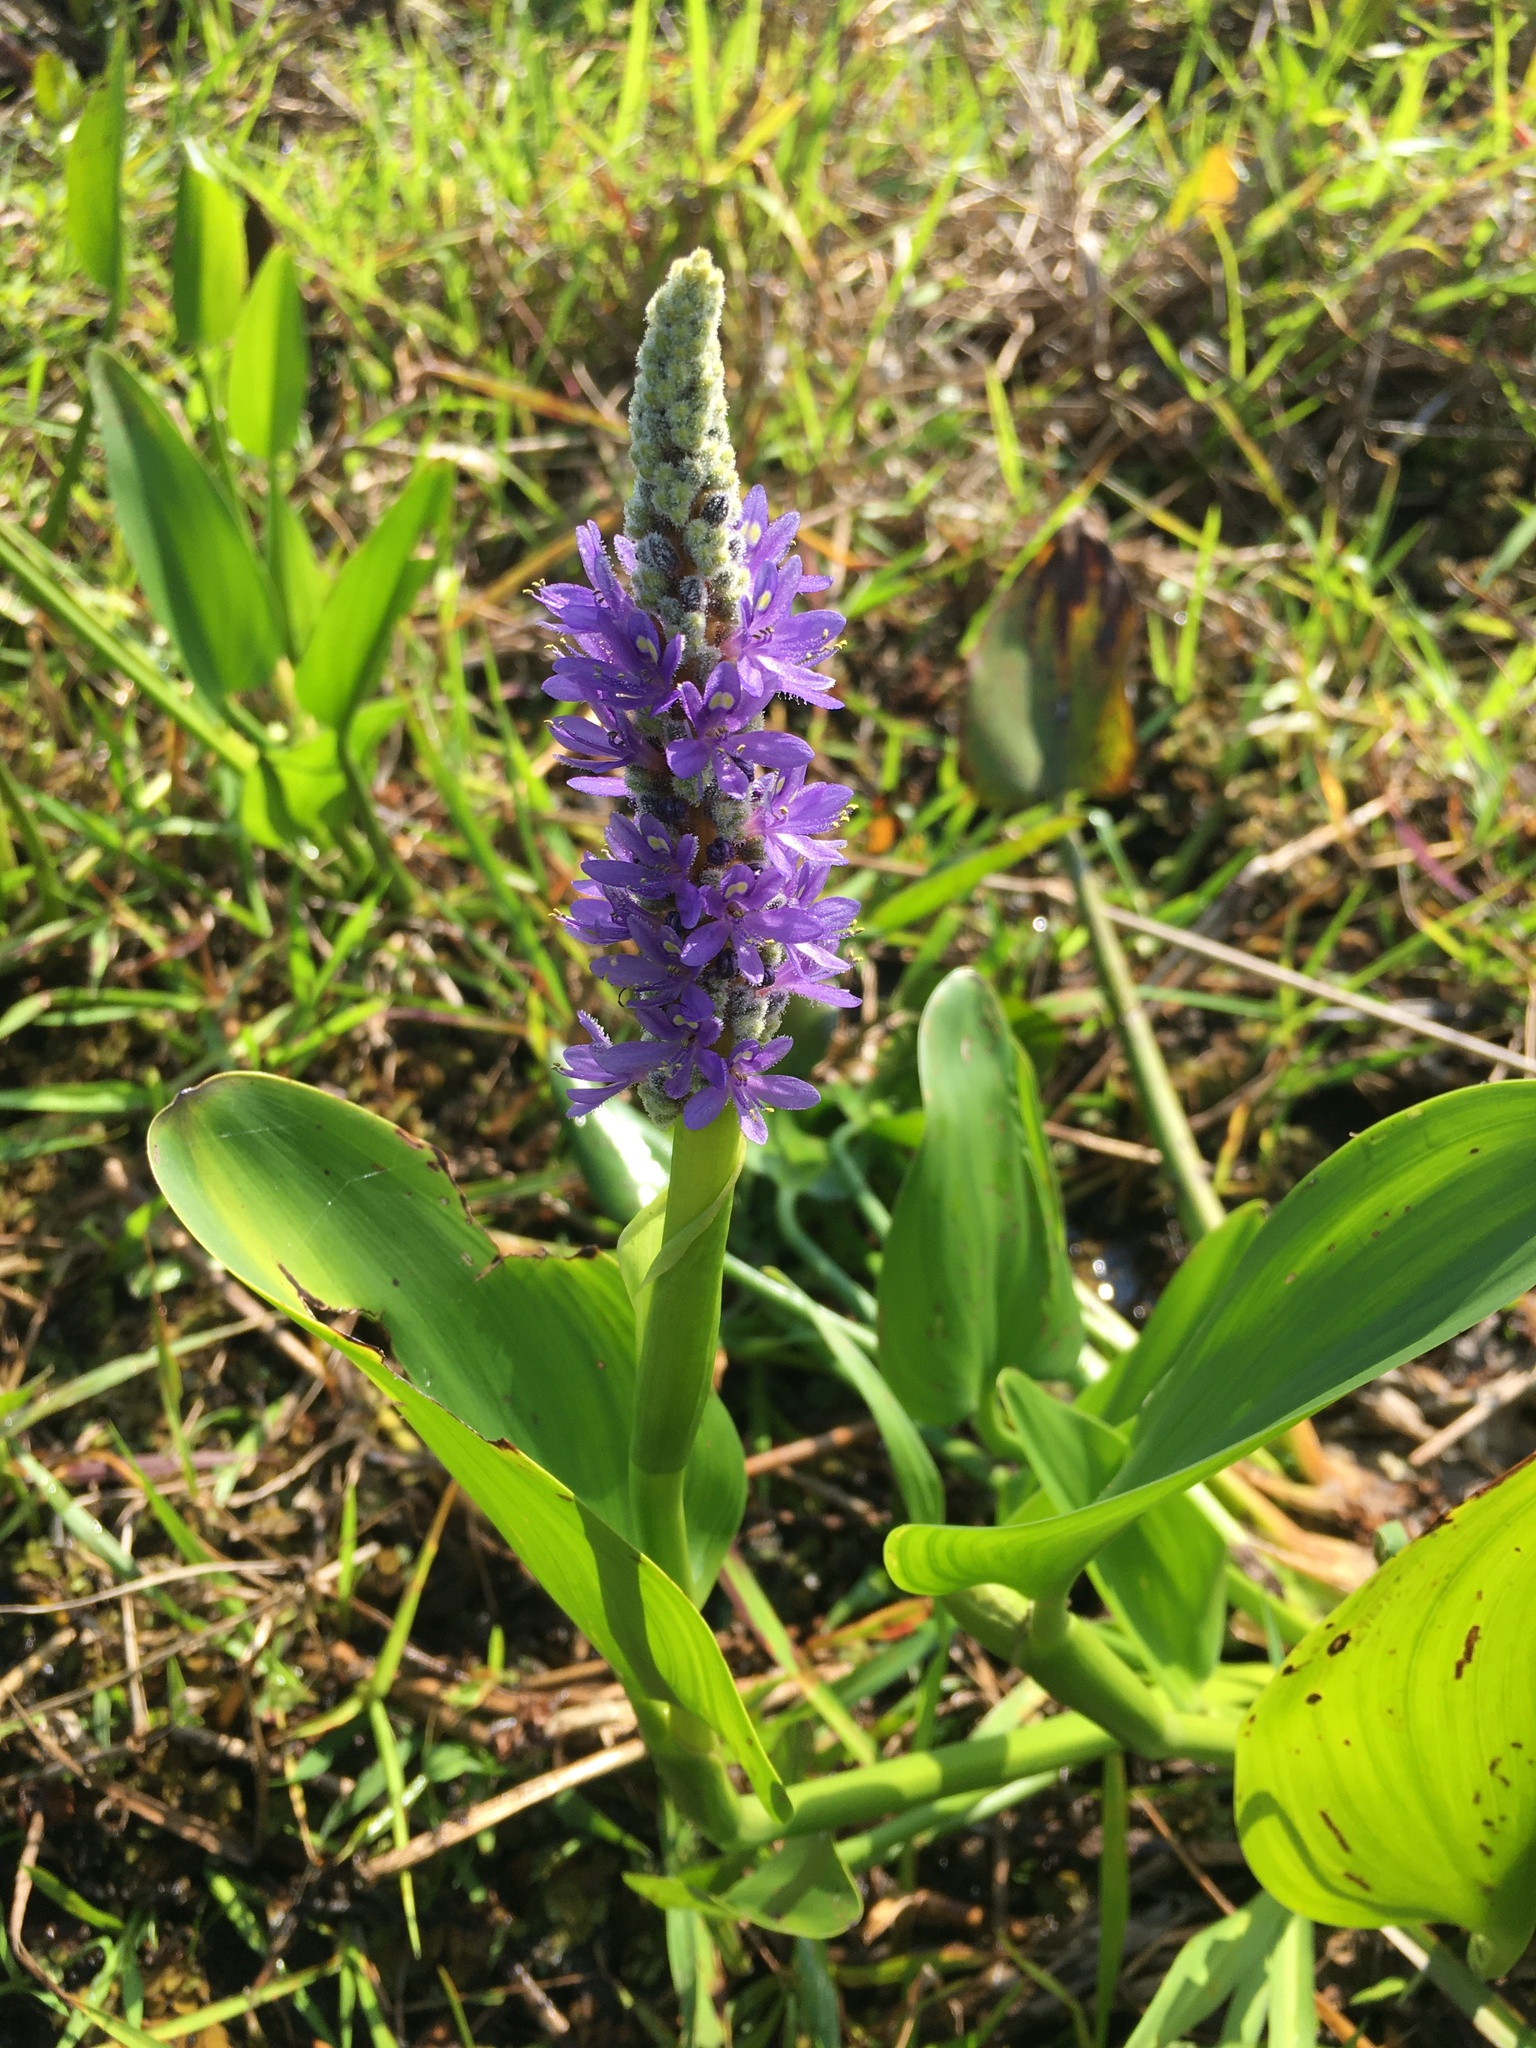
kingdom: Plantae
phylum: Tracheophyta
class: Liliopsida
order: Commelinales
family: Pontederiaceae
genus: Pontederia
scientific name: Pontederia cordata
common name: Pickerelweed
